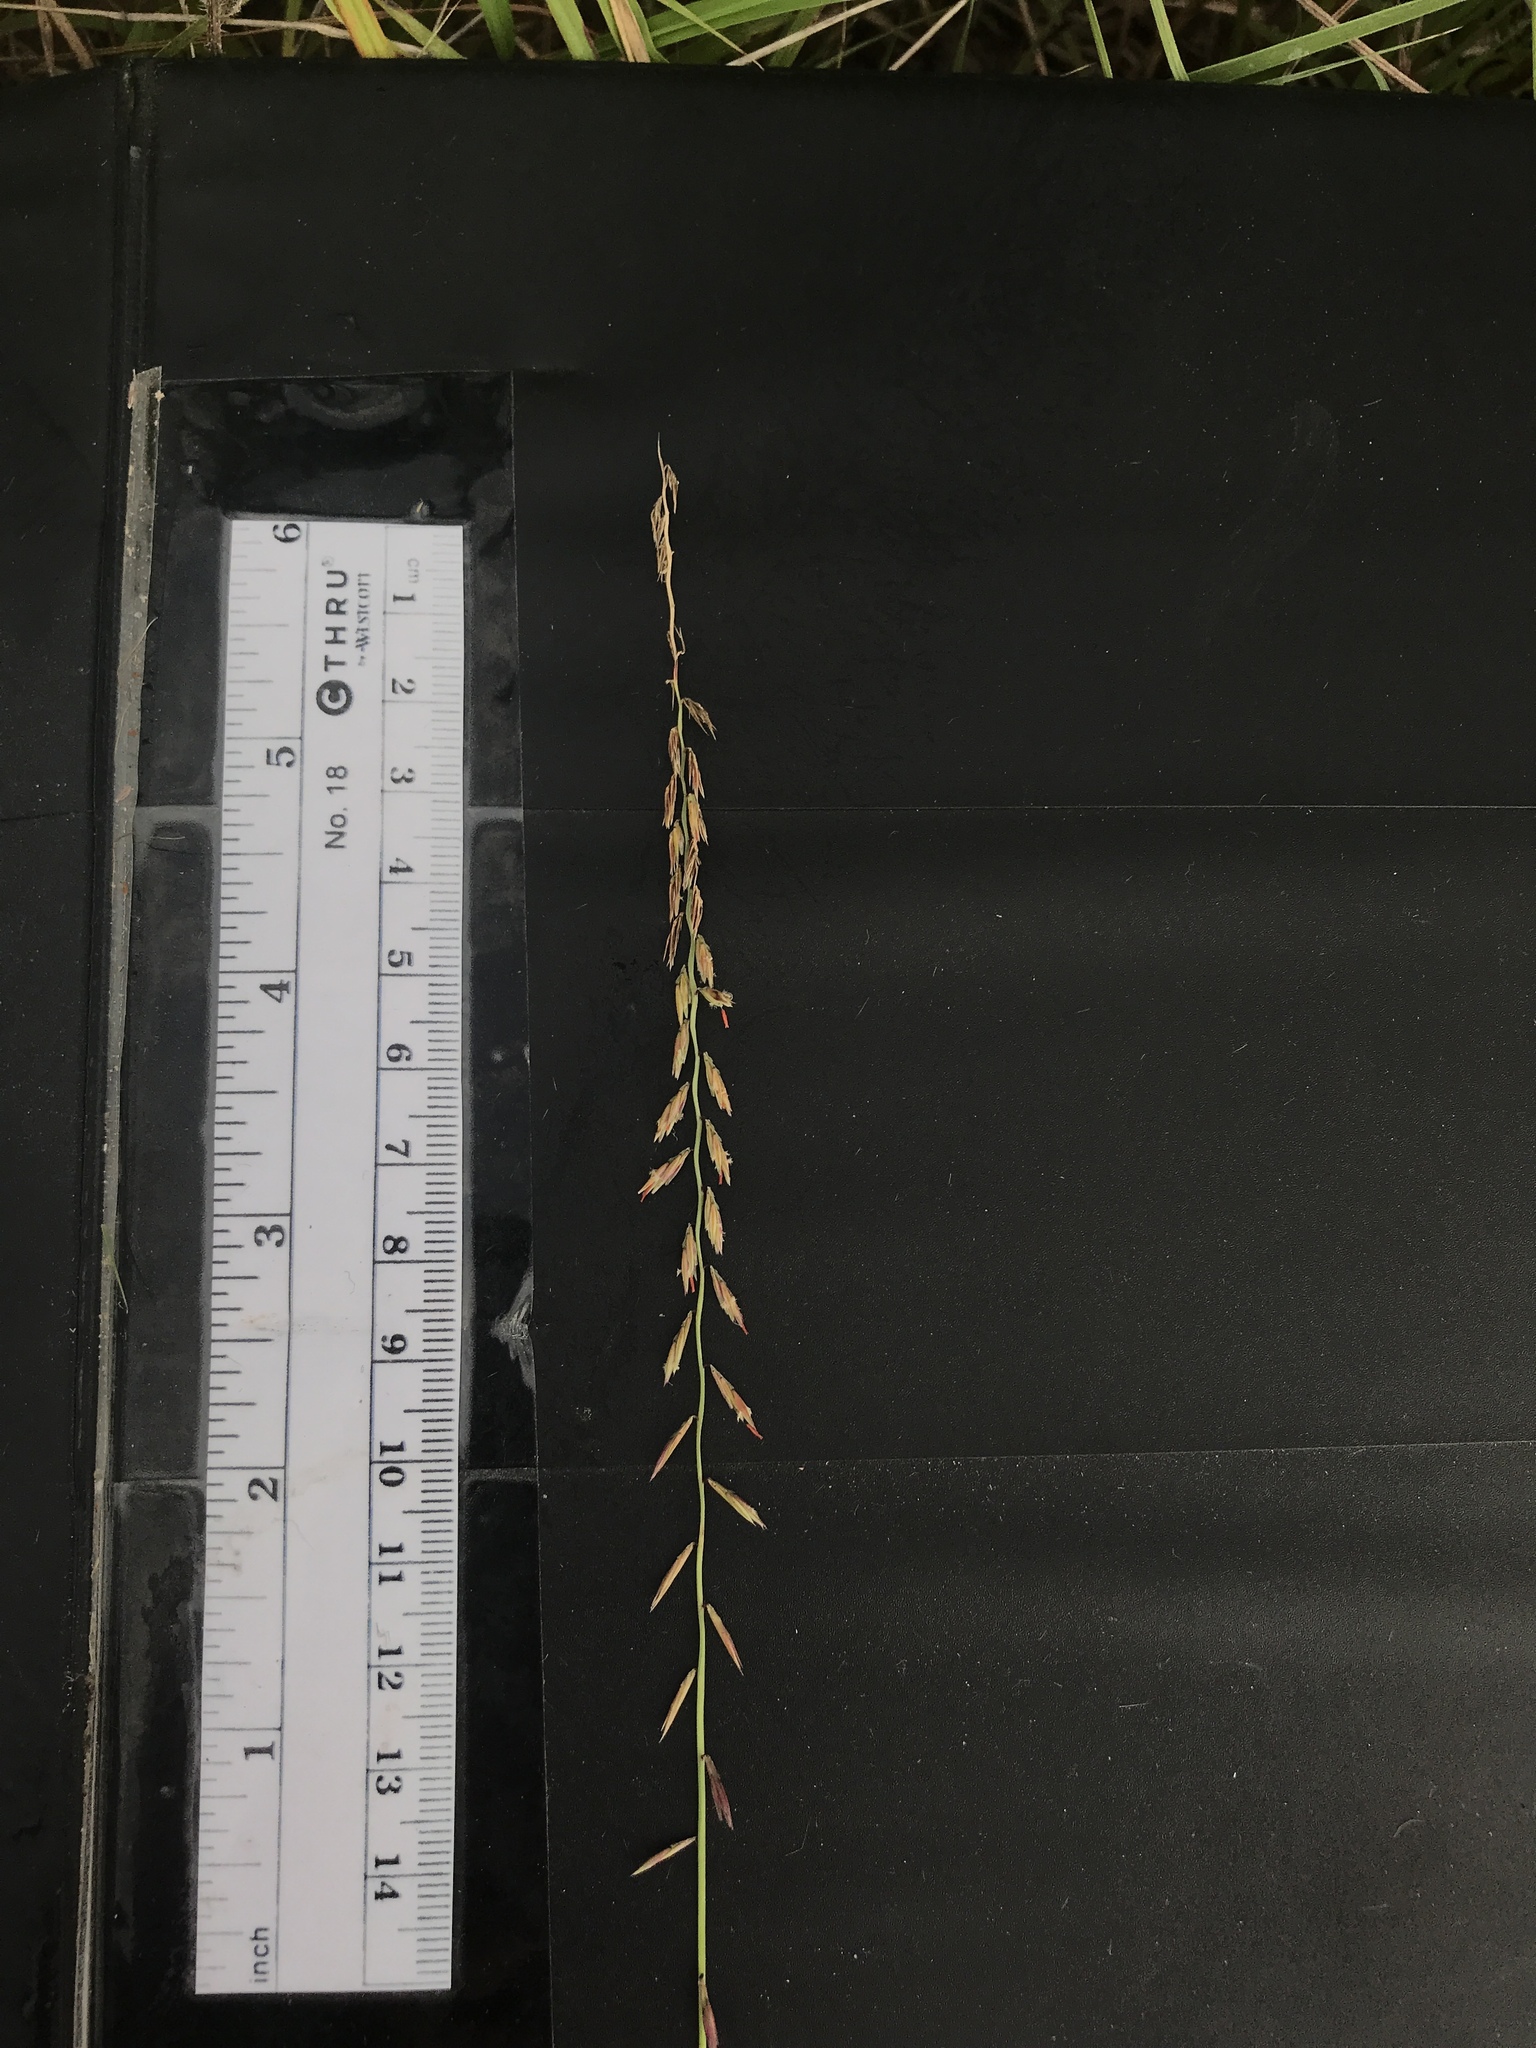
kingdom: Plantae
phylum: Tracheophyta
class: Liliopsida
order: Poales
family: Poaceae
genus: Bouteloua
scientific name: Bouteloua curtipendula
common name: Side-oats grama
